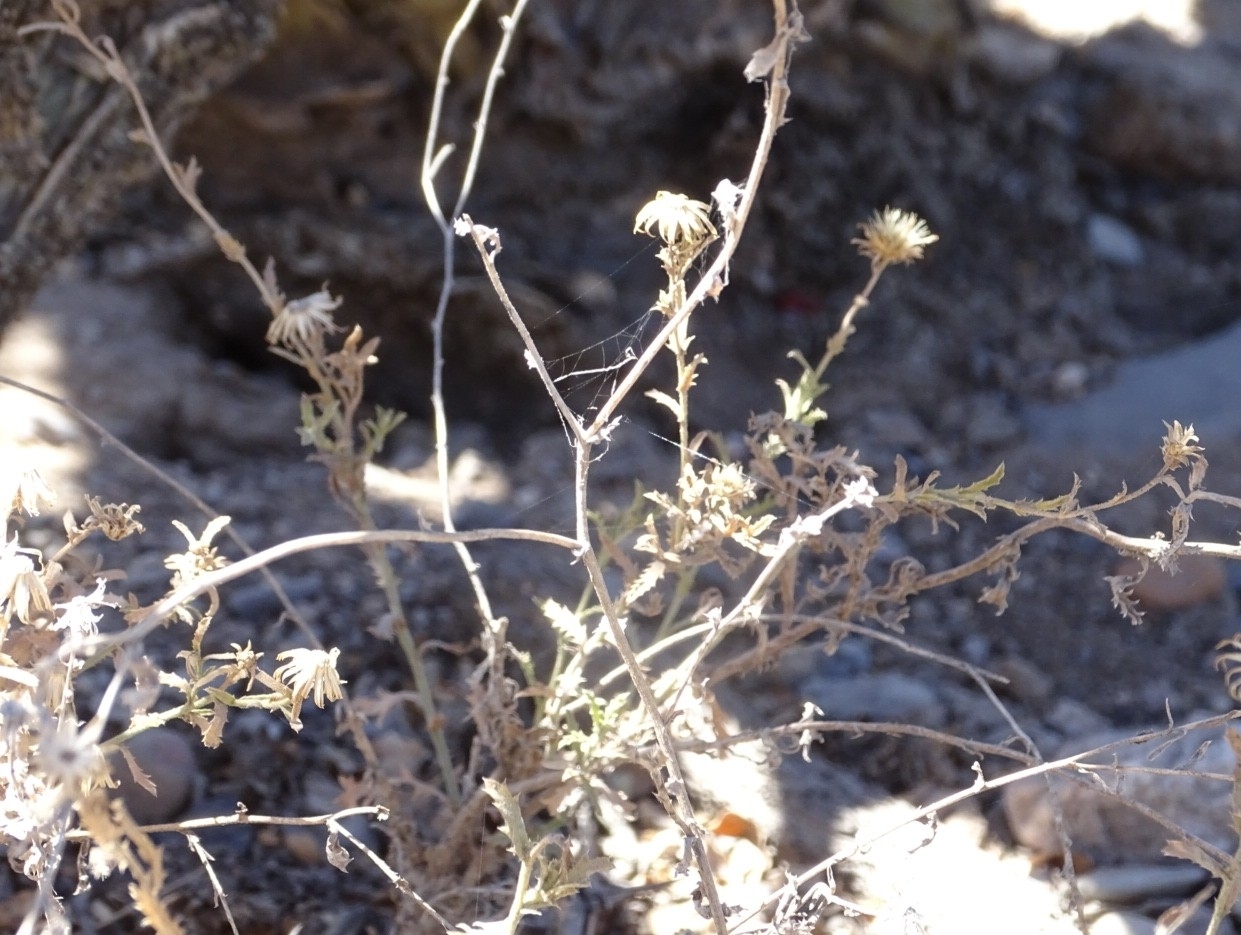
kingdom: Plantae
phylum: Tracheophyta
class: Magnoliopsida
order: Asterales
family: Asteraceae
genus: Xanthisma
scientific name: Xanthisma spinulosum
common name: Spiny goldenweed
